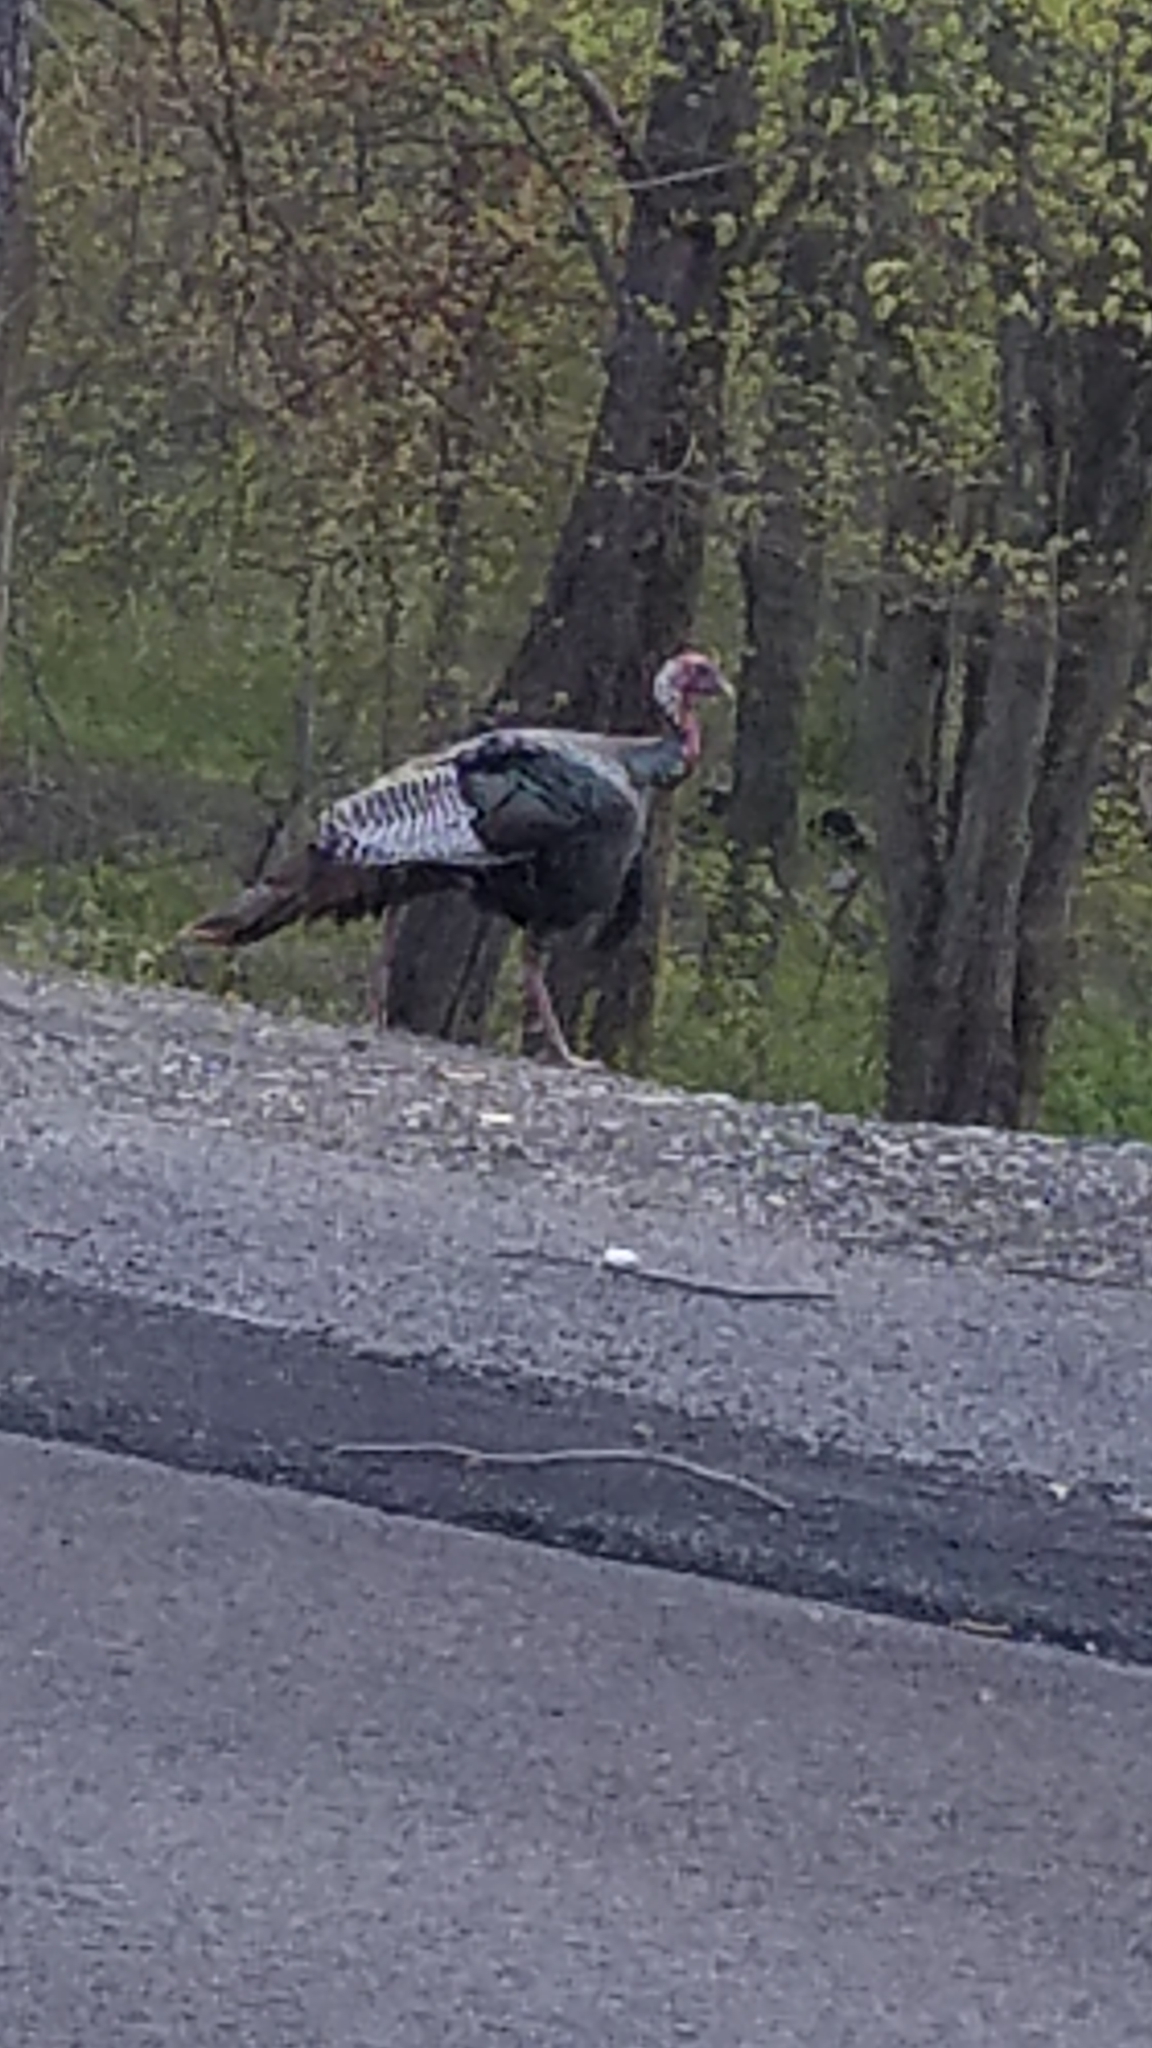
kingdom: Animalia
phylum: Chordata
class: Aves
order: Galliformes
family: Phasianidae
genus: Meleagris
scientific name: Meleagris gallopavo
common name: Wild turkey
